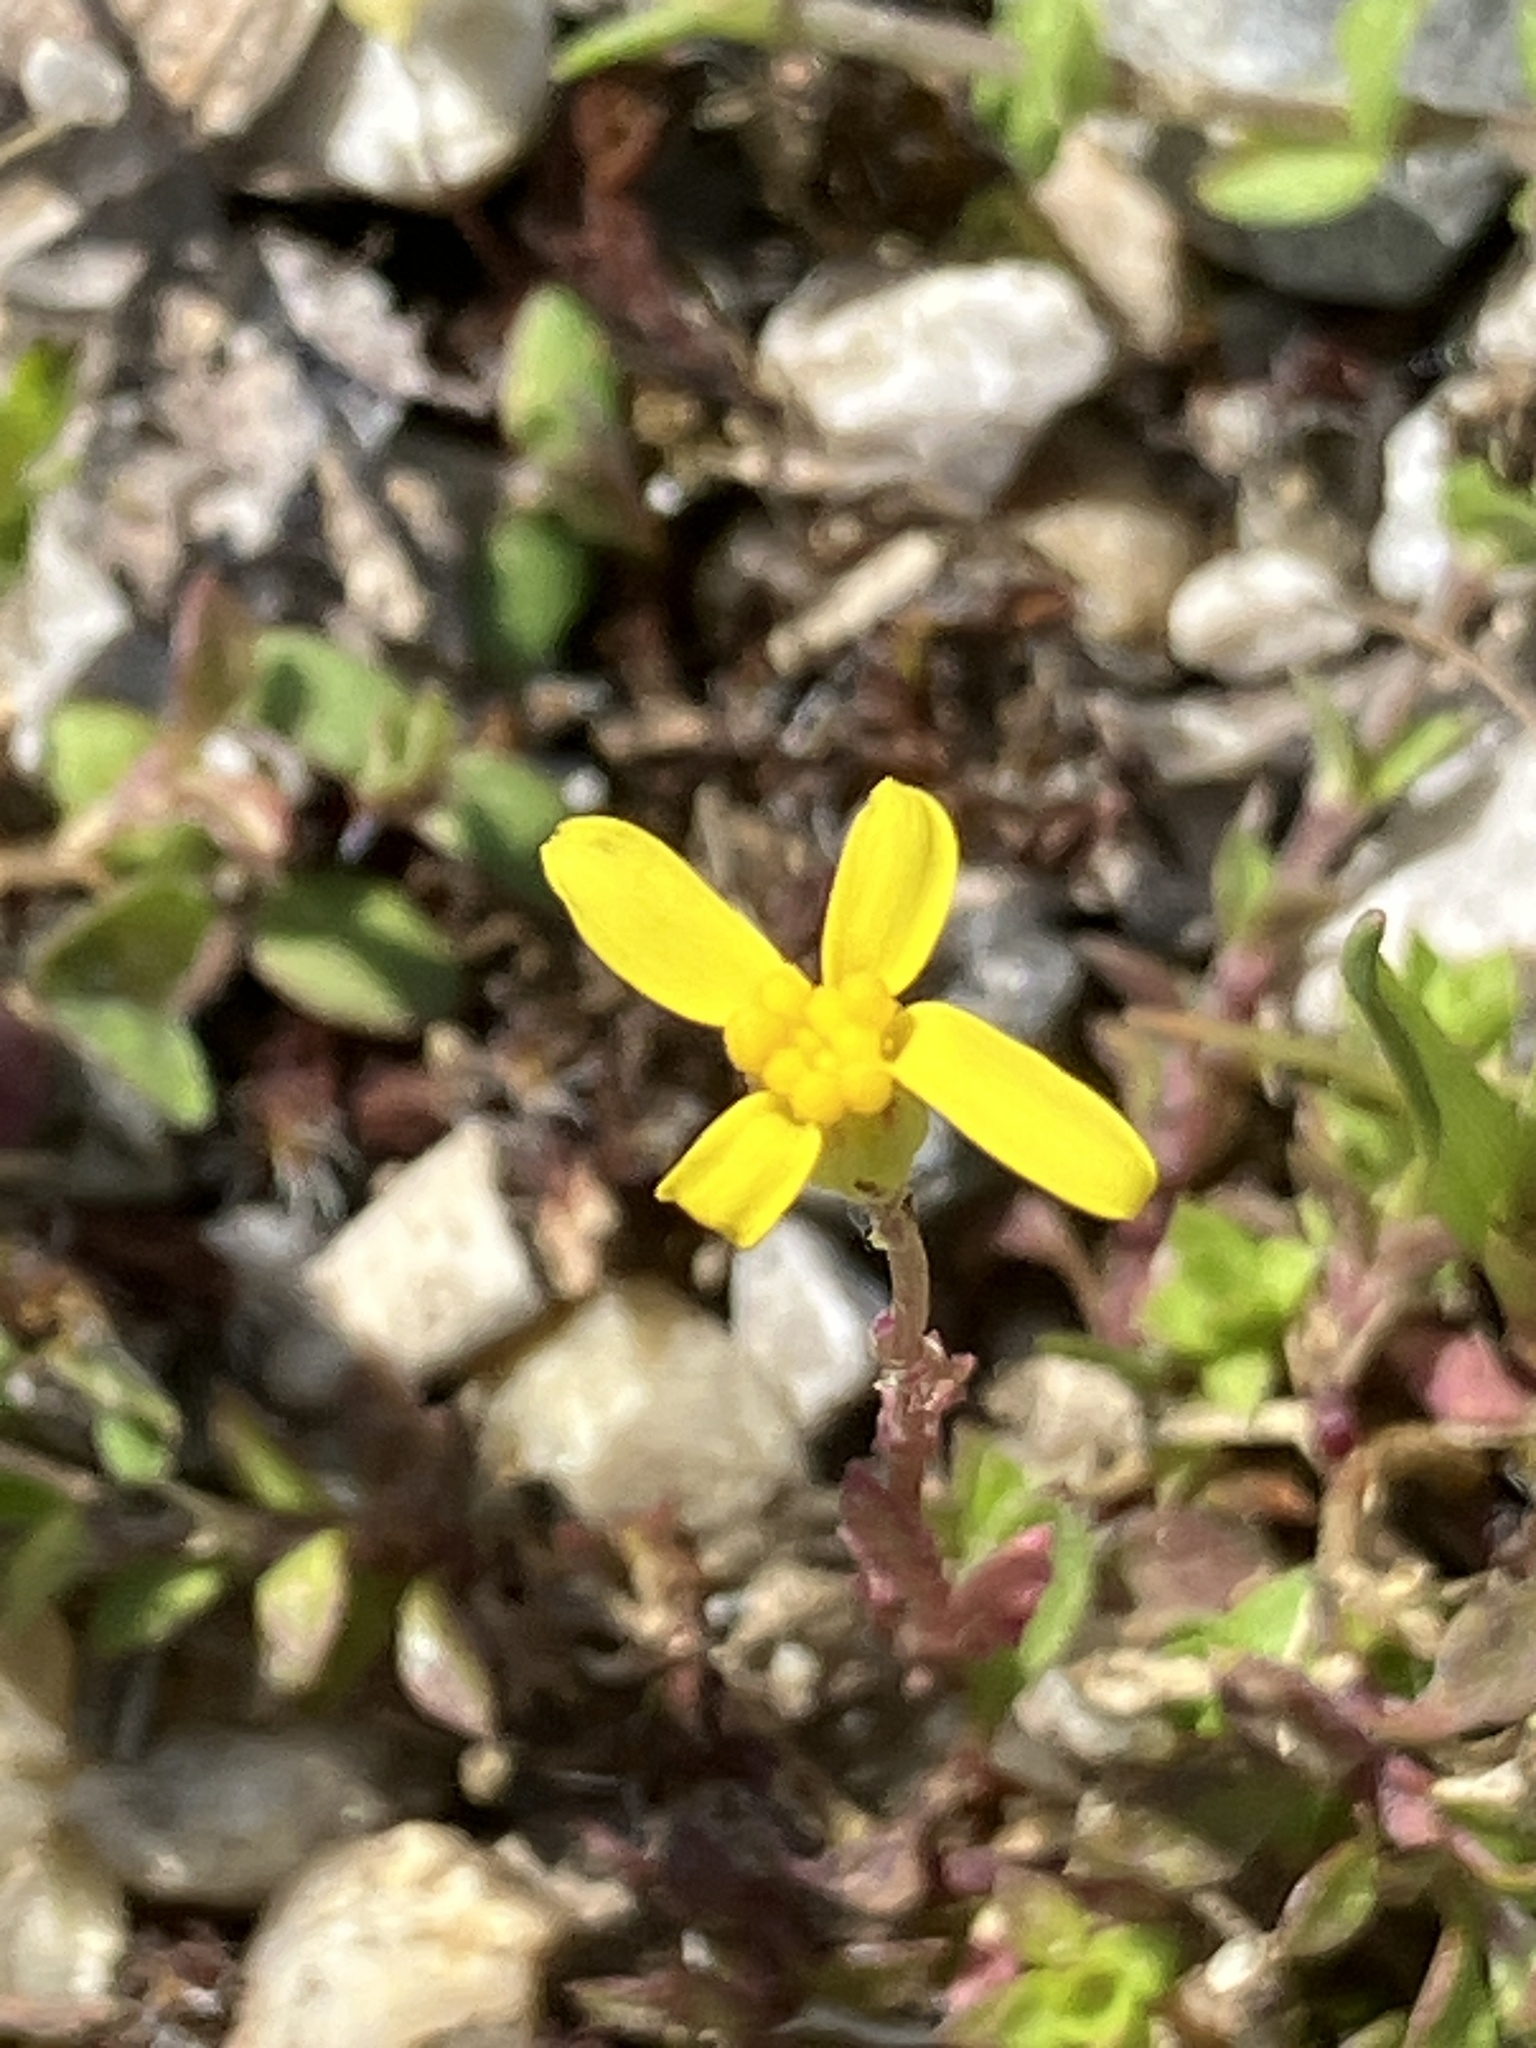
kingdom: Plantae
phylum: Tracheophyta
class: Magnoliopsida
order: Asterales
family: Asteraceae
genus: Senecio
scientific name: Senecio vernalis
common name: Eastern groundsel
